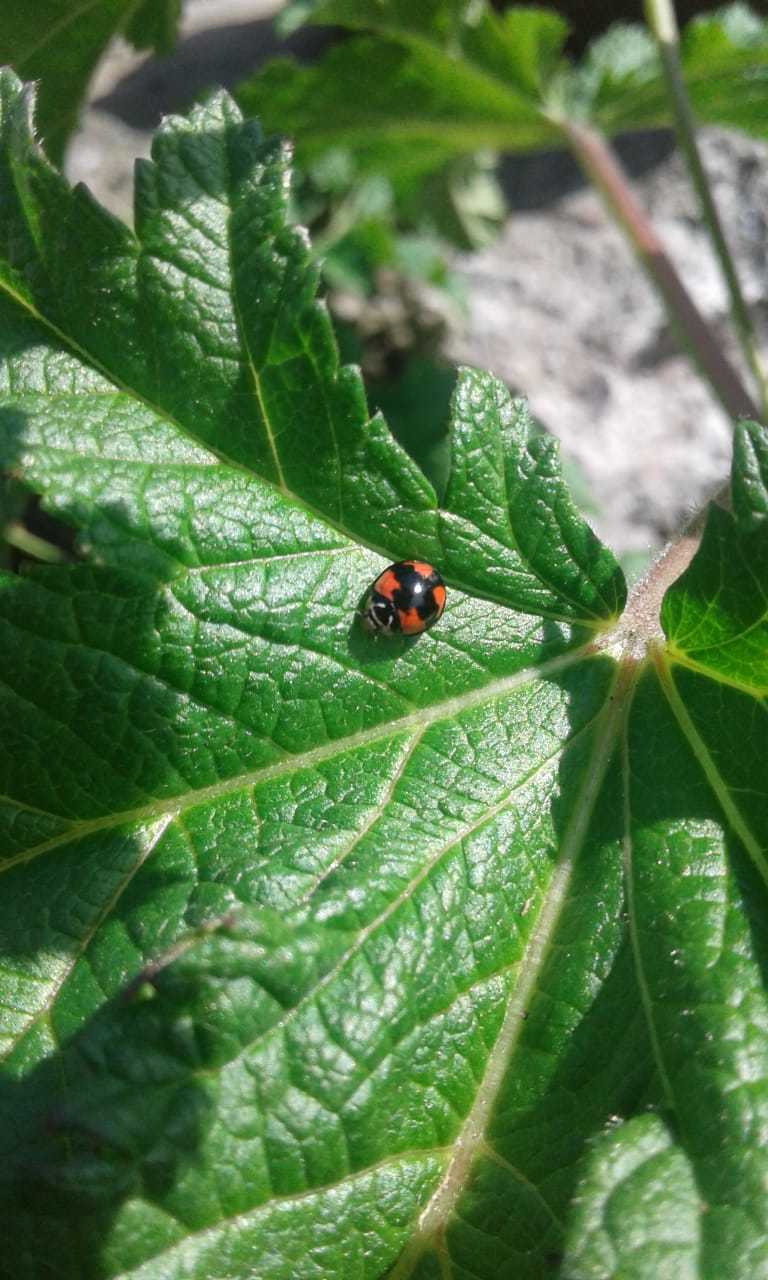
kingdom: Animalia
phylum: Arthropoda
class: Insecta
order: Coleoptera
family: Coccinellidae
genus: Cheilomenes
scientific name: Cheilomenes sexmaculata
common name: Ladybird beetle
